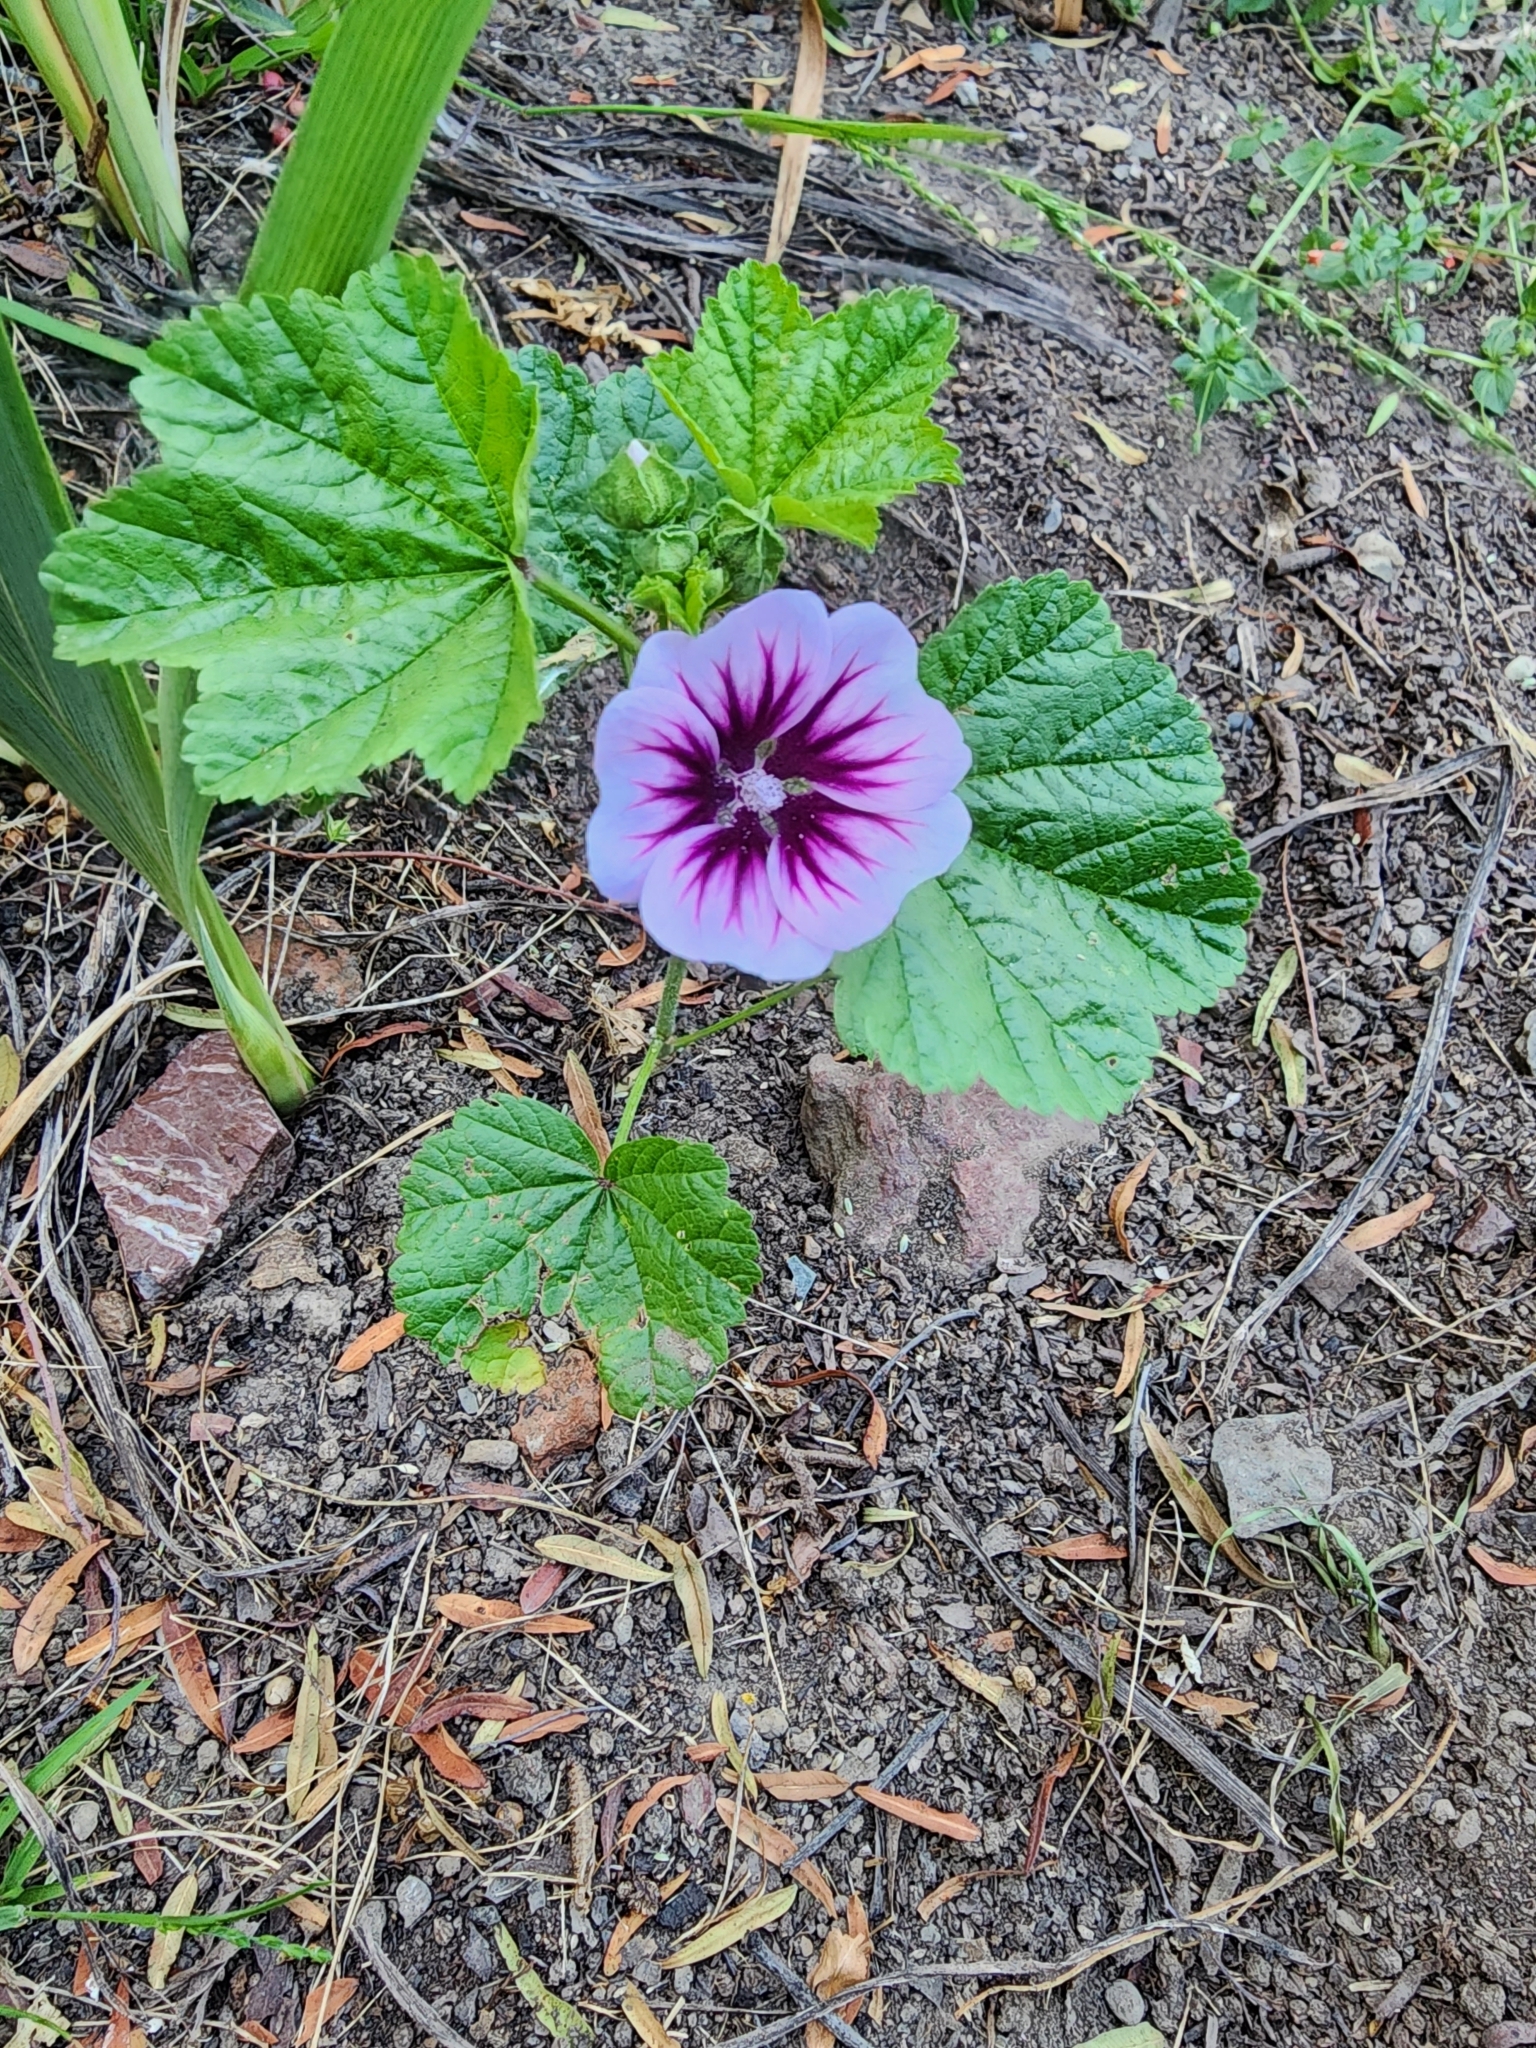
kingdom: Plantae
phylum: Tracheophyta
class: Magnoliopsida
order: Malvales
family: Malvaceae
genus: Malva
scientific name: Malva sylvestris
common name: Common mallow
